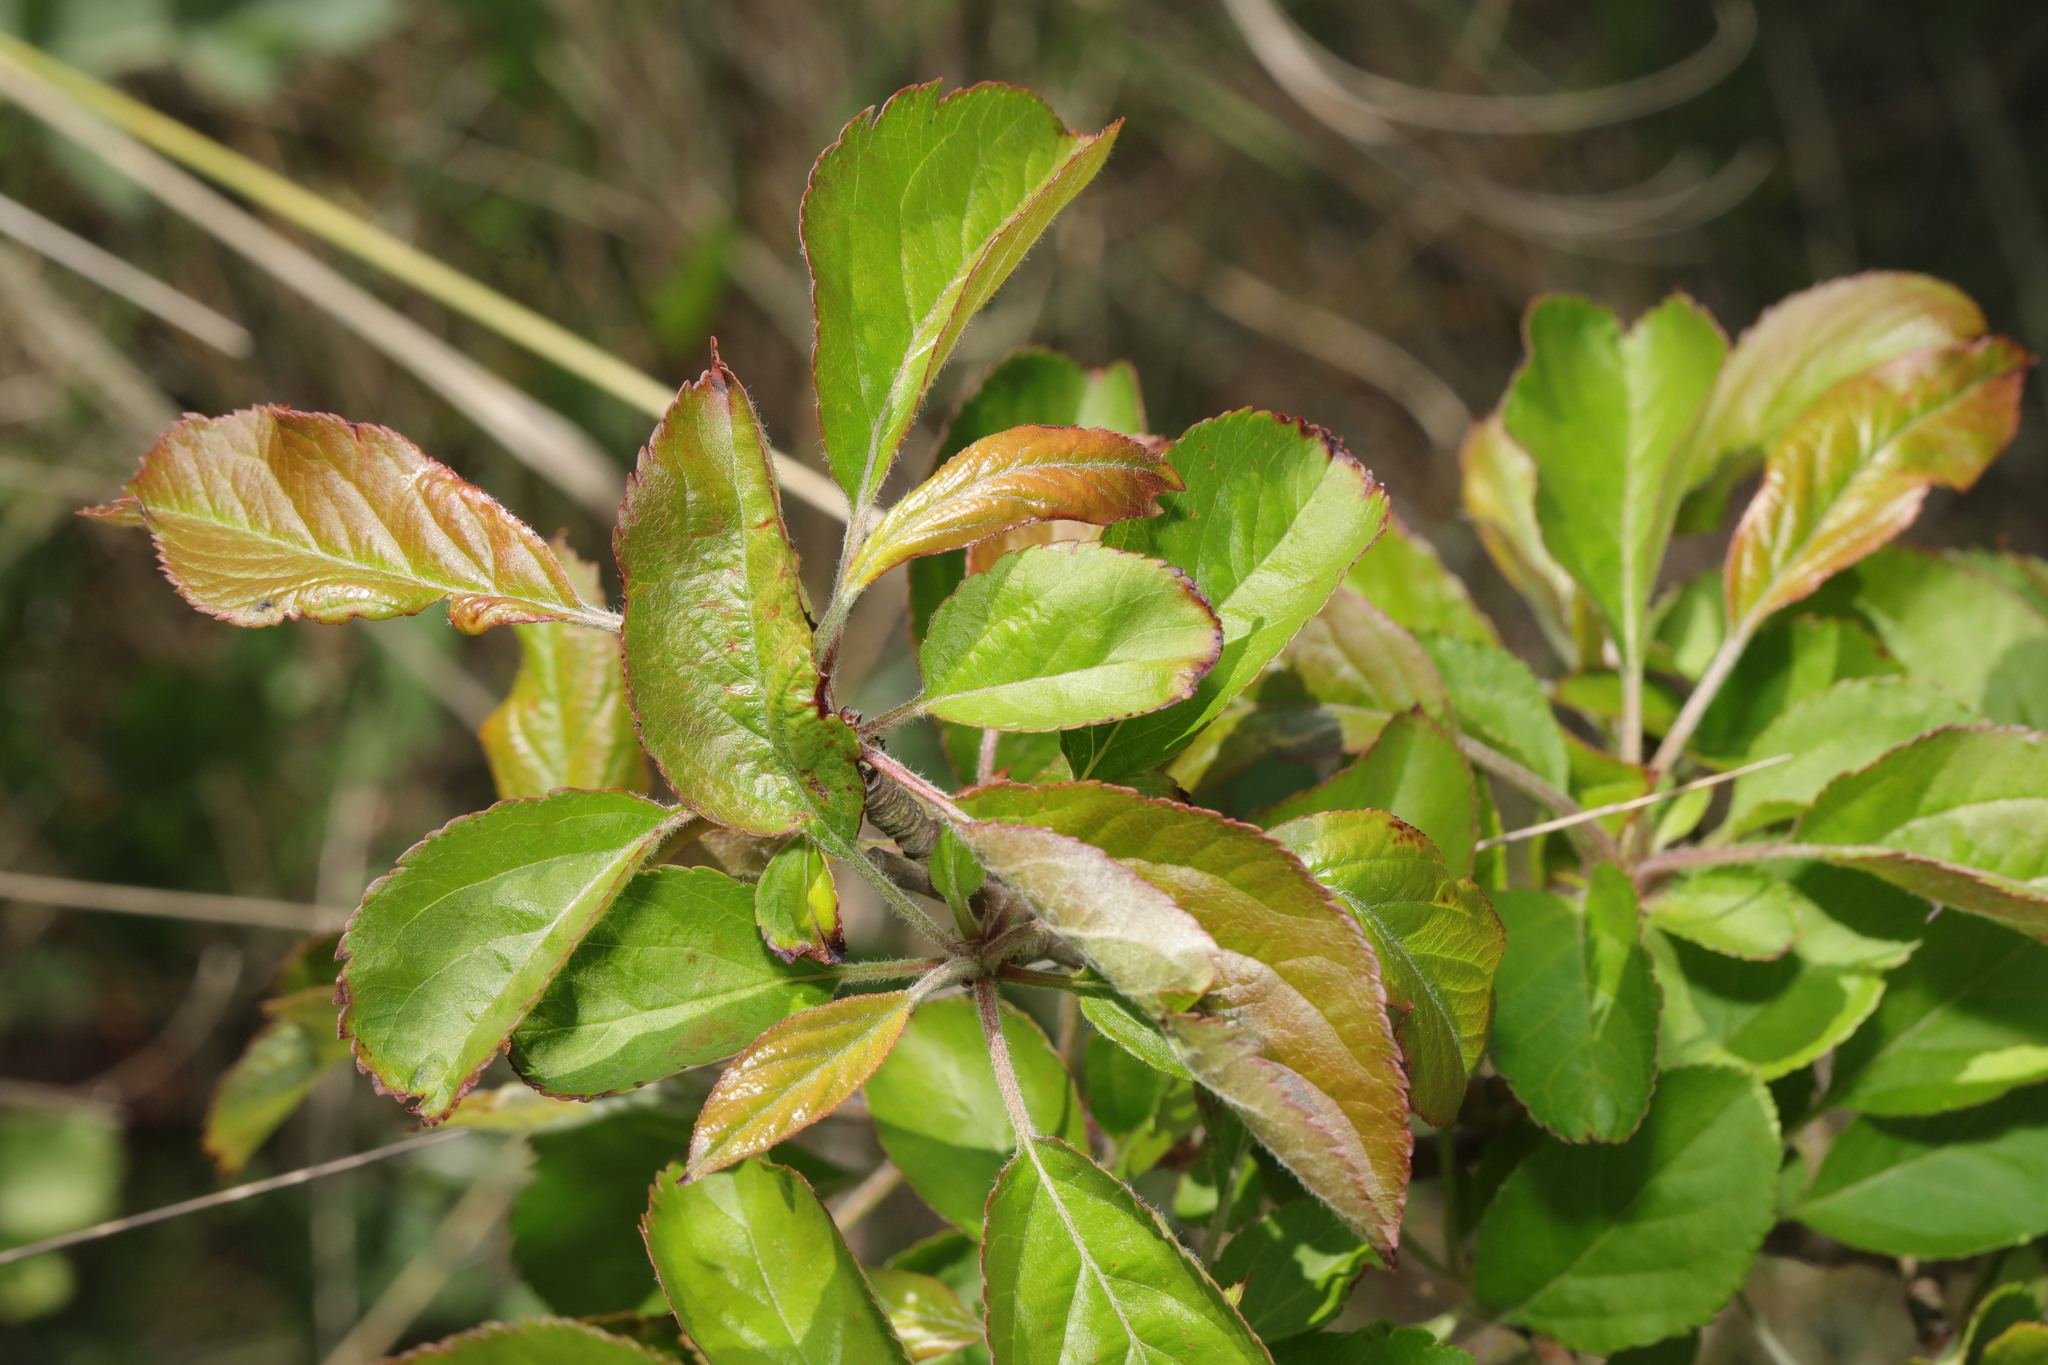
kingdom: Plantae
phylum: Tracheophyta
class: Magnoliopsida
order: Rosales
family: Rosaceae
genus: Malus
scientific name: Malus domestica
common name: Apple
